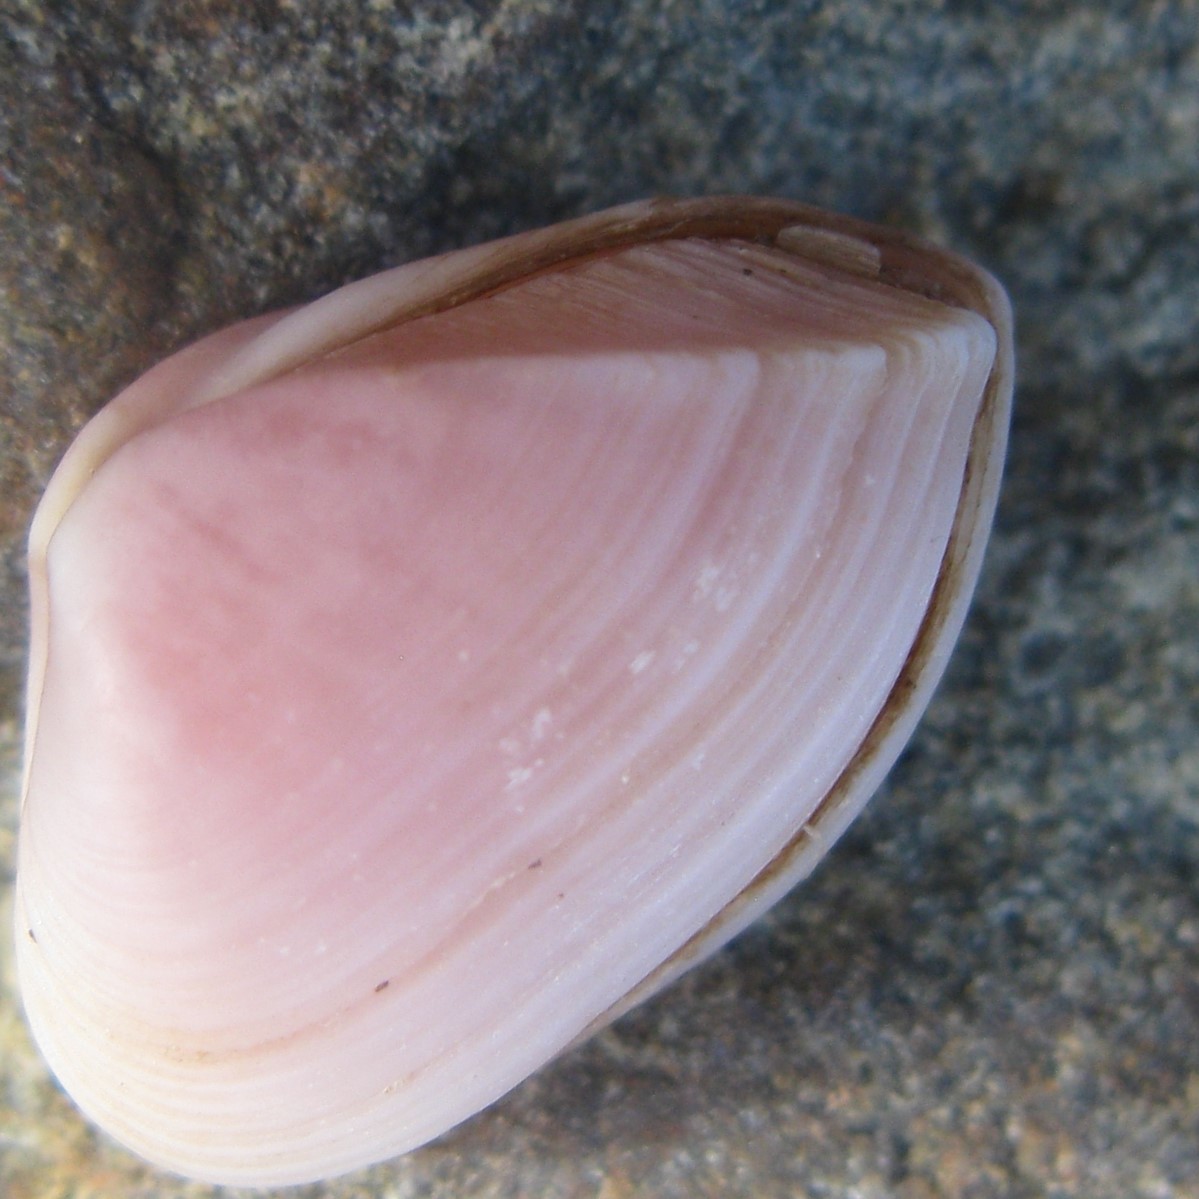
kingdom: Animalia
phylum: Mollusca
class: Bivalvia
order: Myida
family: Corbulidae
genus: Corbula
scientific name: Corbula zelandica
